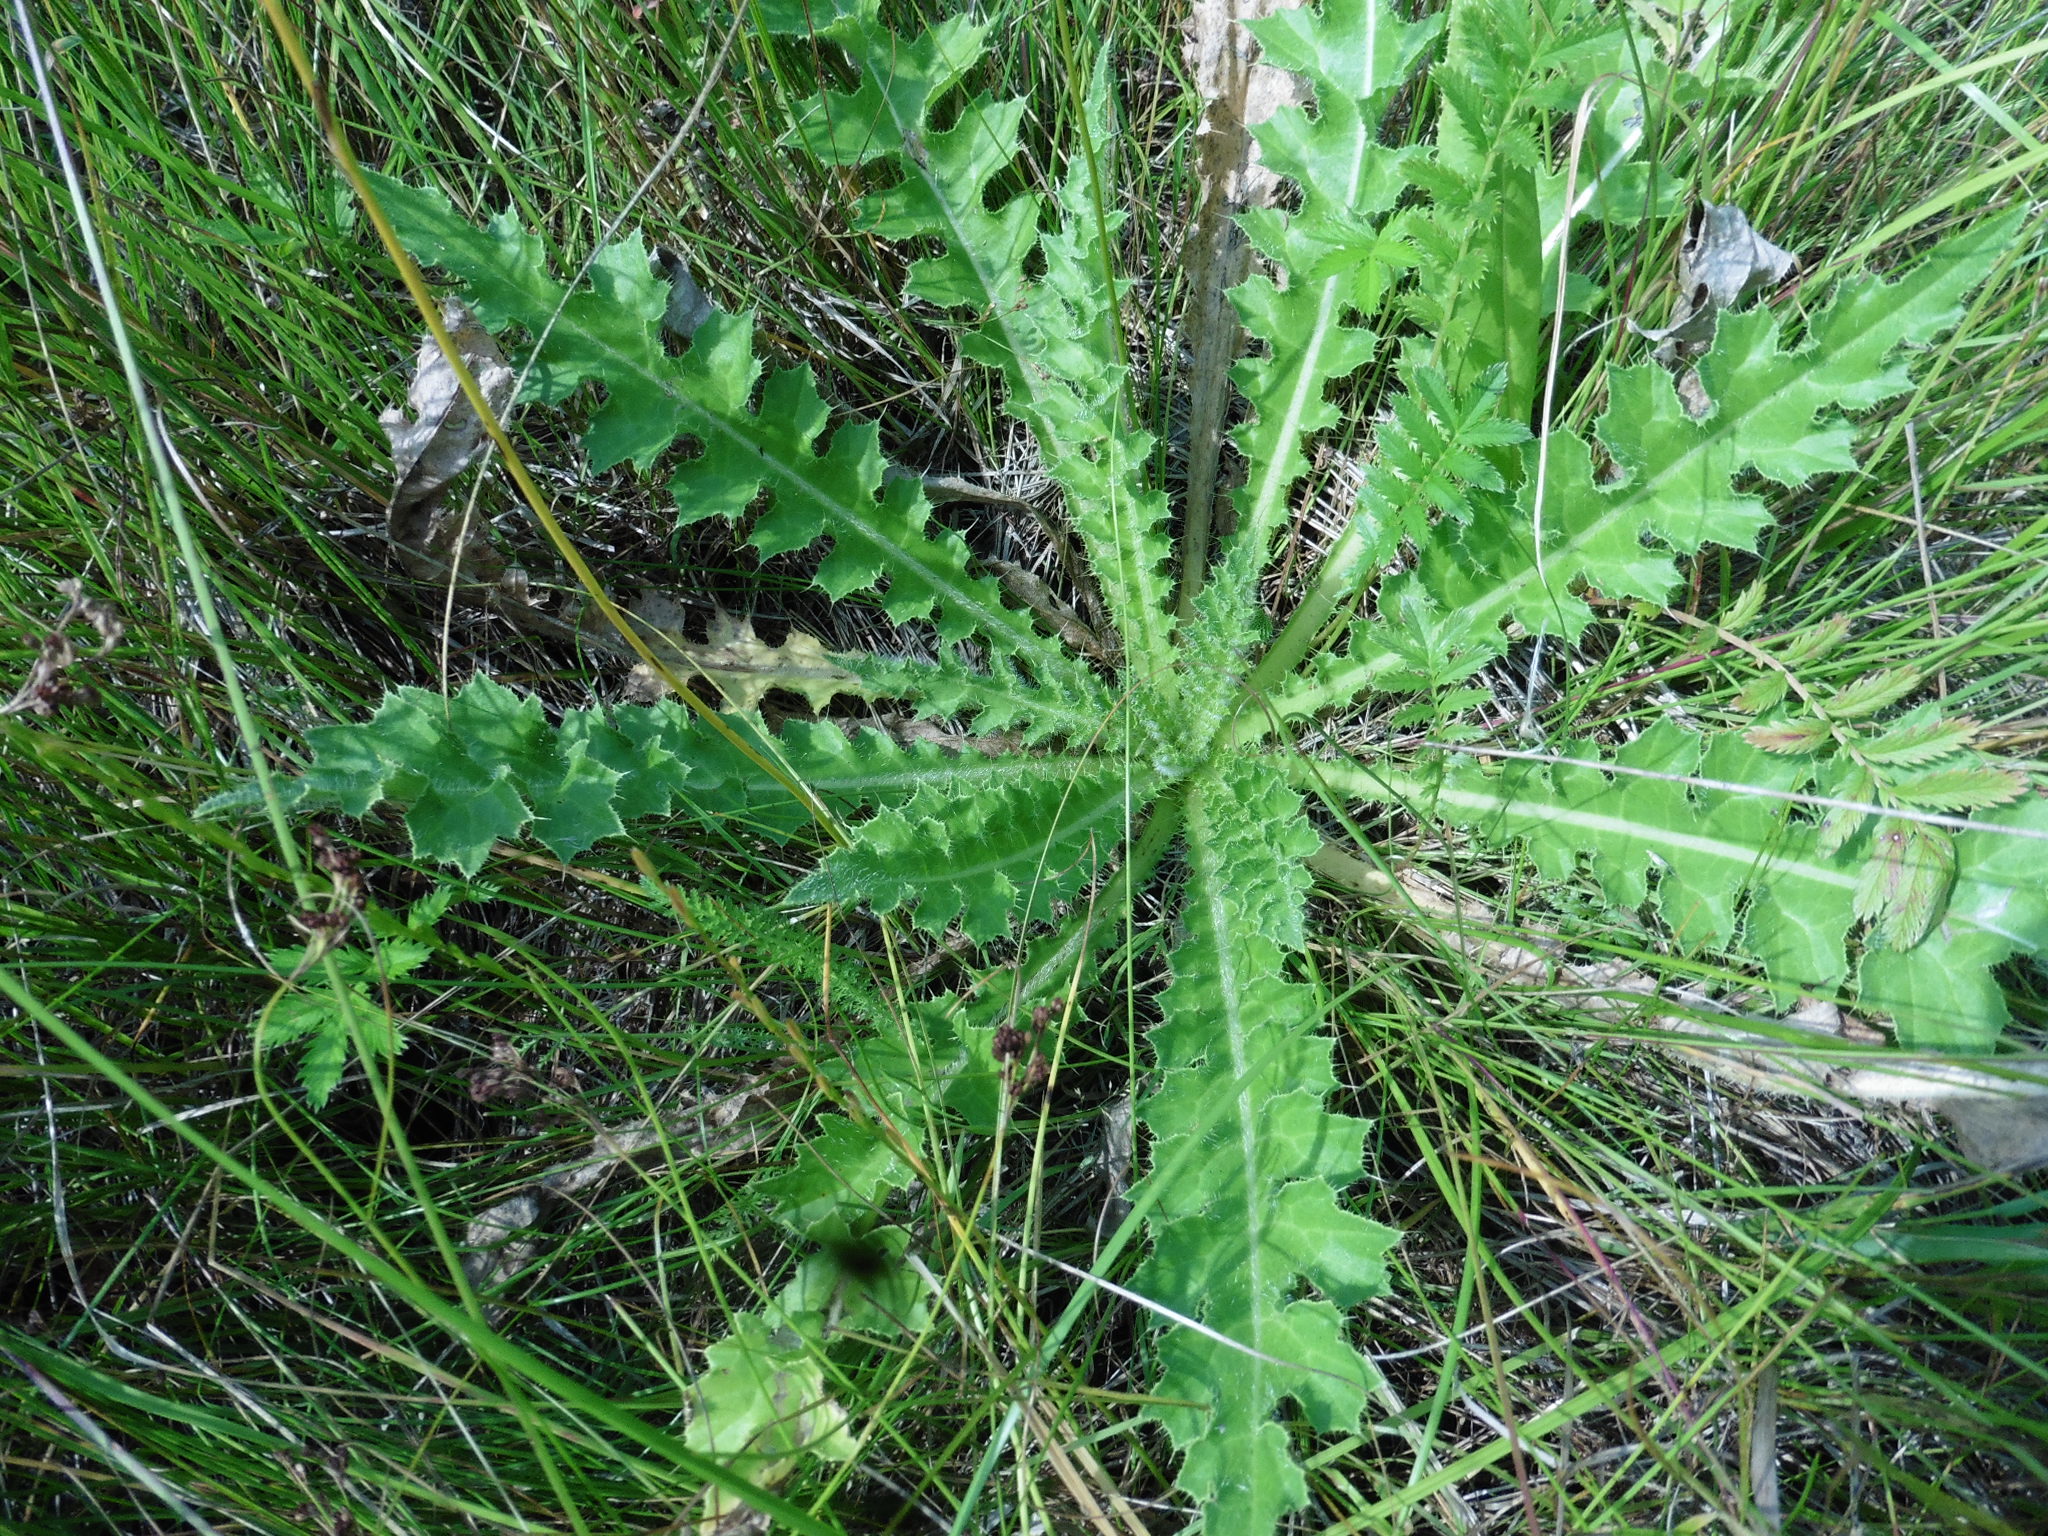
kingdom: Plantae
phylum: Tracheophyta
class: Magnoliopsida
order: Asterales
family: Asteraceae
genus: Cirsium
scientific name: Cirsium esculentum
